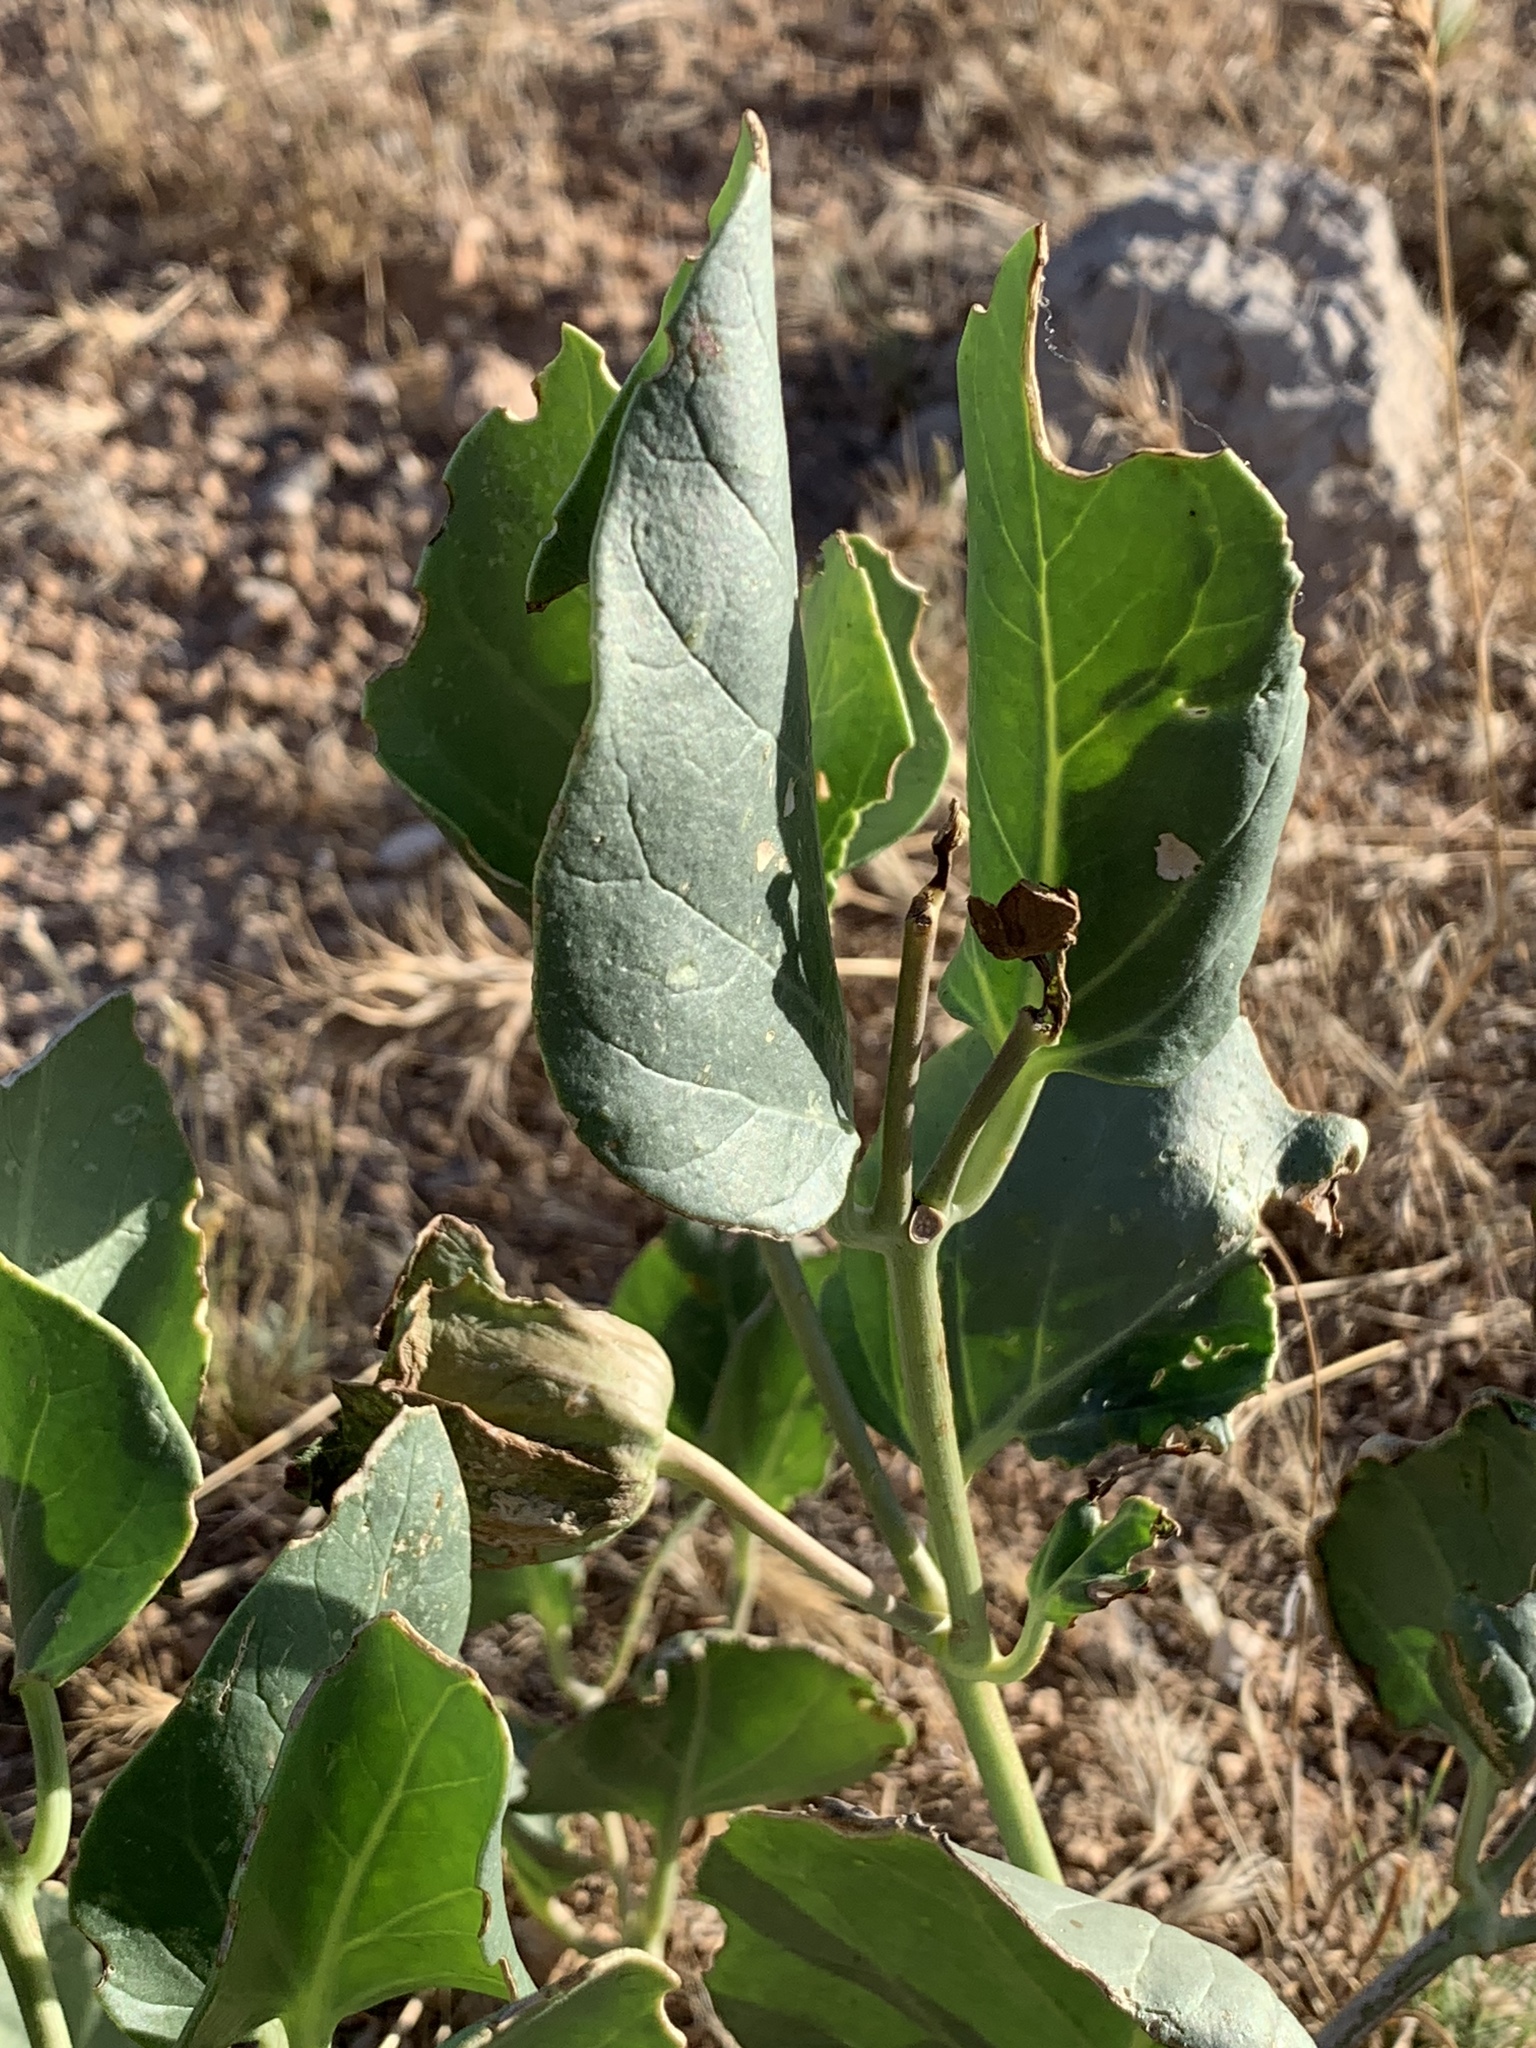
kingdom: Plantae
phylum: Tracheophyta
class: Magnoliopsida
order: Caryophyllales
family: Nyctaginaceae
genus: Mirabilis
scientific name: Mirabilis multiflora
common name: Froebel's four-o'clock
